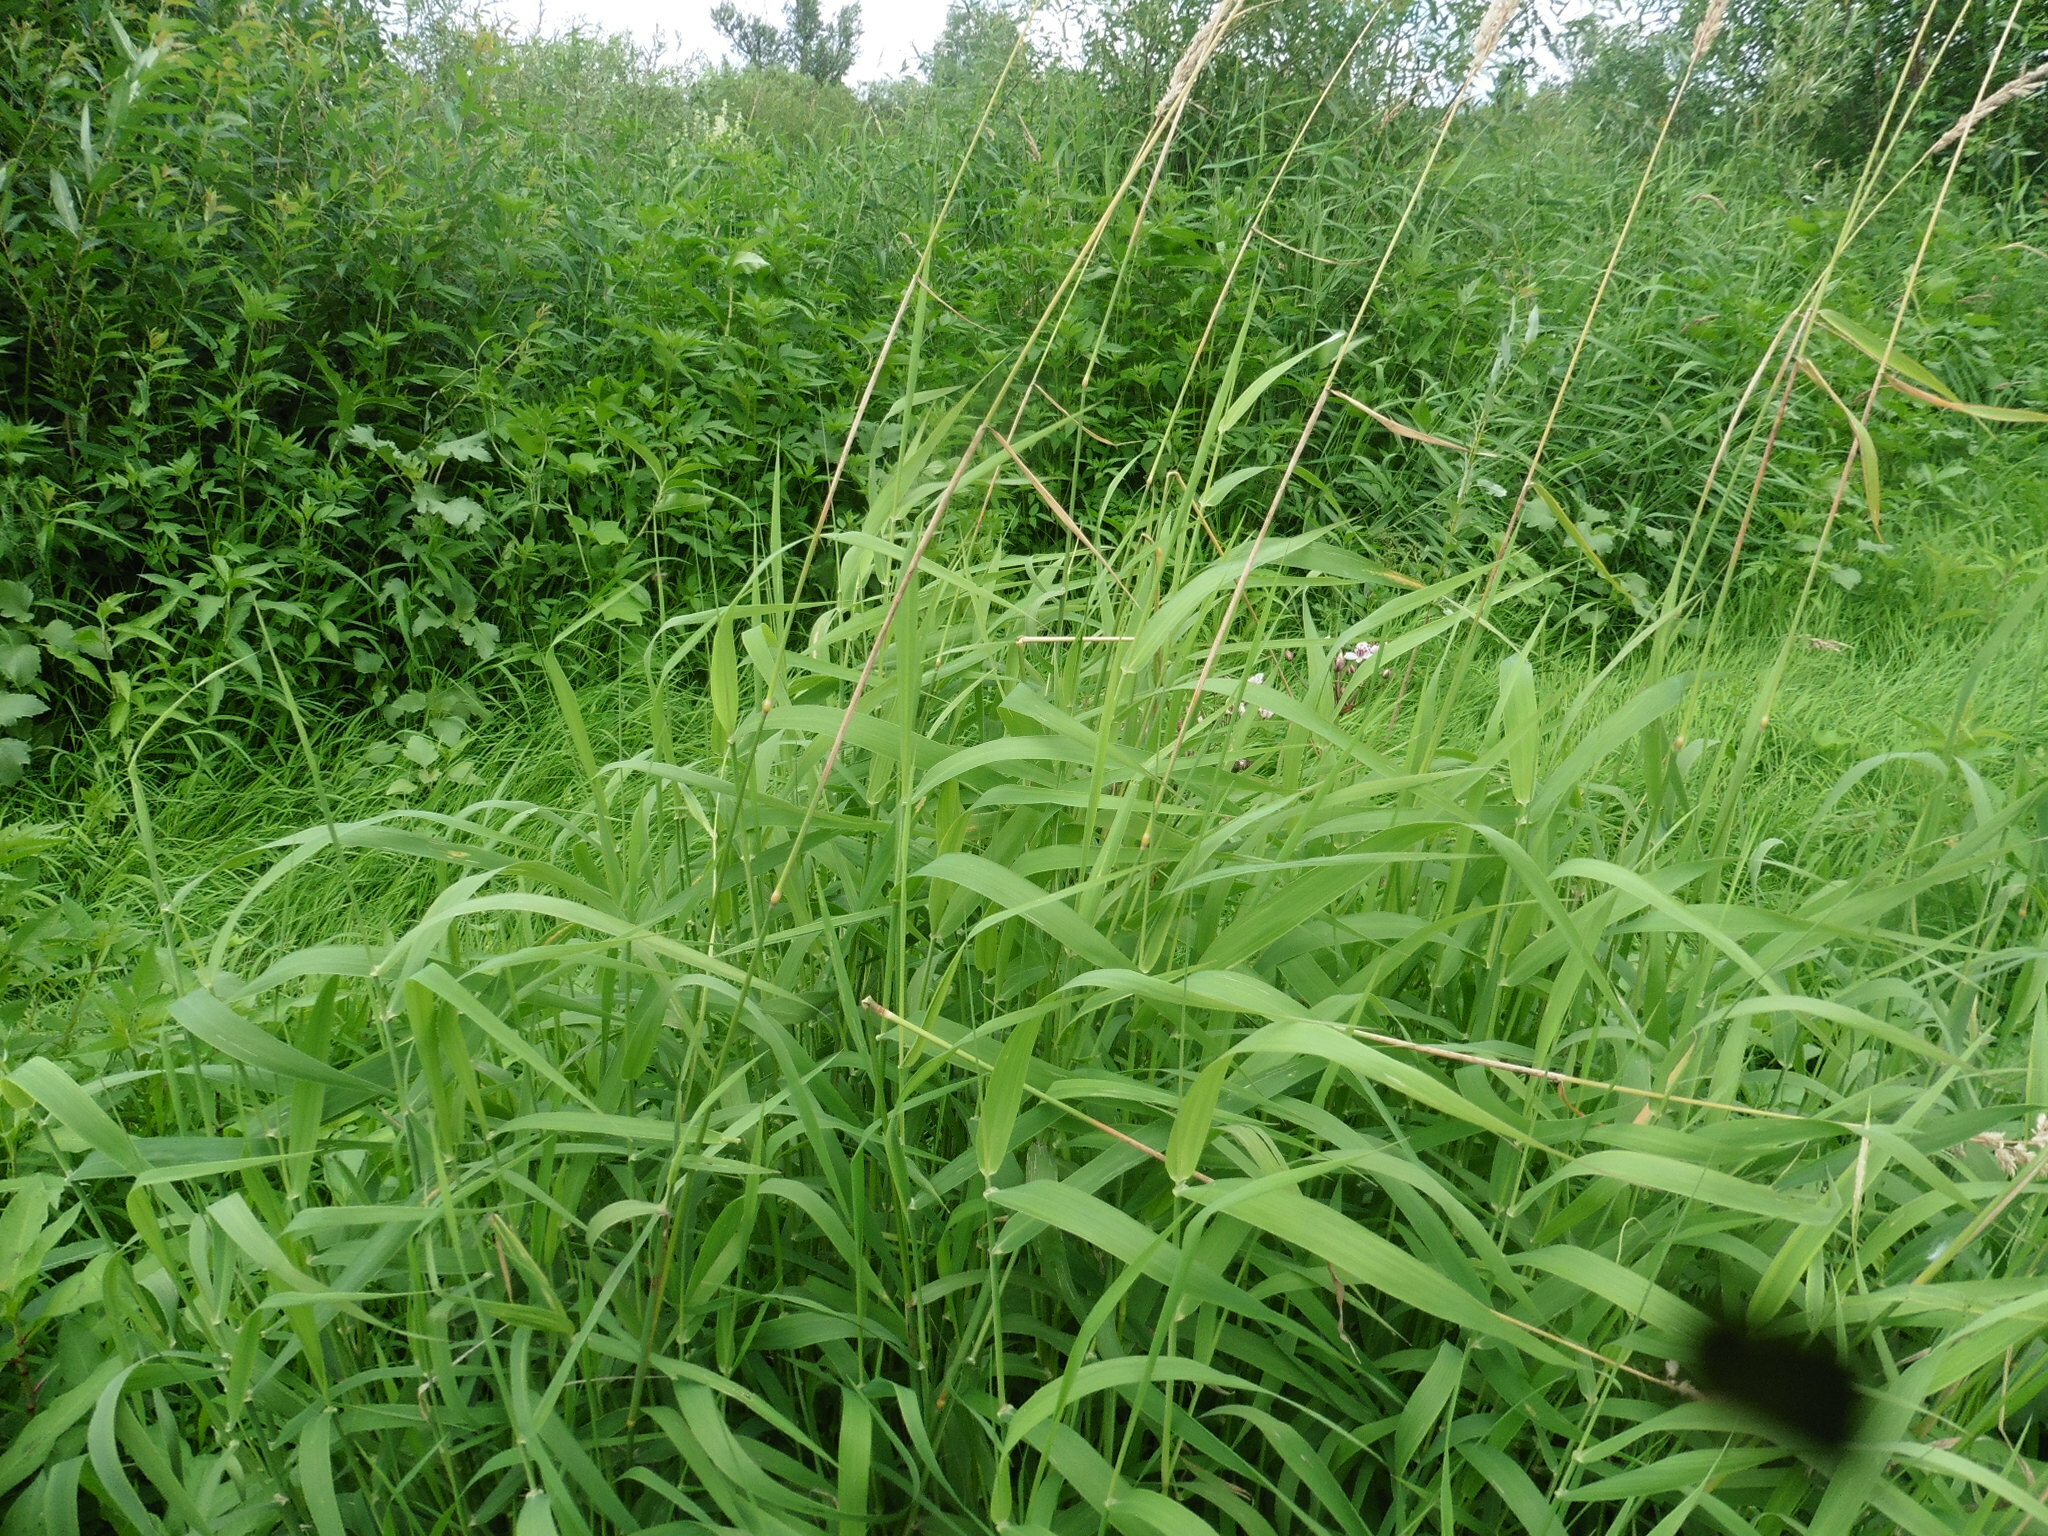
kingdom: Plantae
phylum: Tracheophyta
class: Liliopsida
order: Poales
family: Poaceae
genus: Phalaris
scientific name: Phalaris arundinacea
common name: Reed canary-grass
